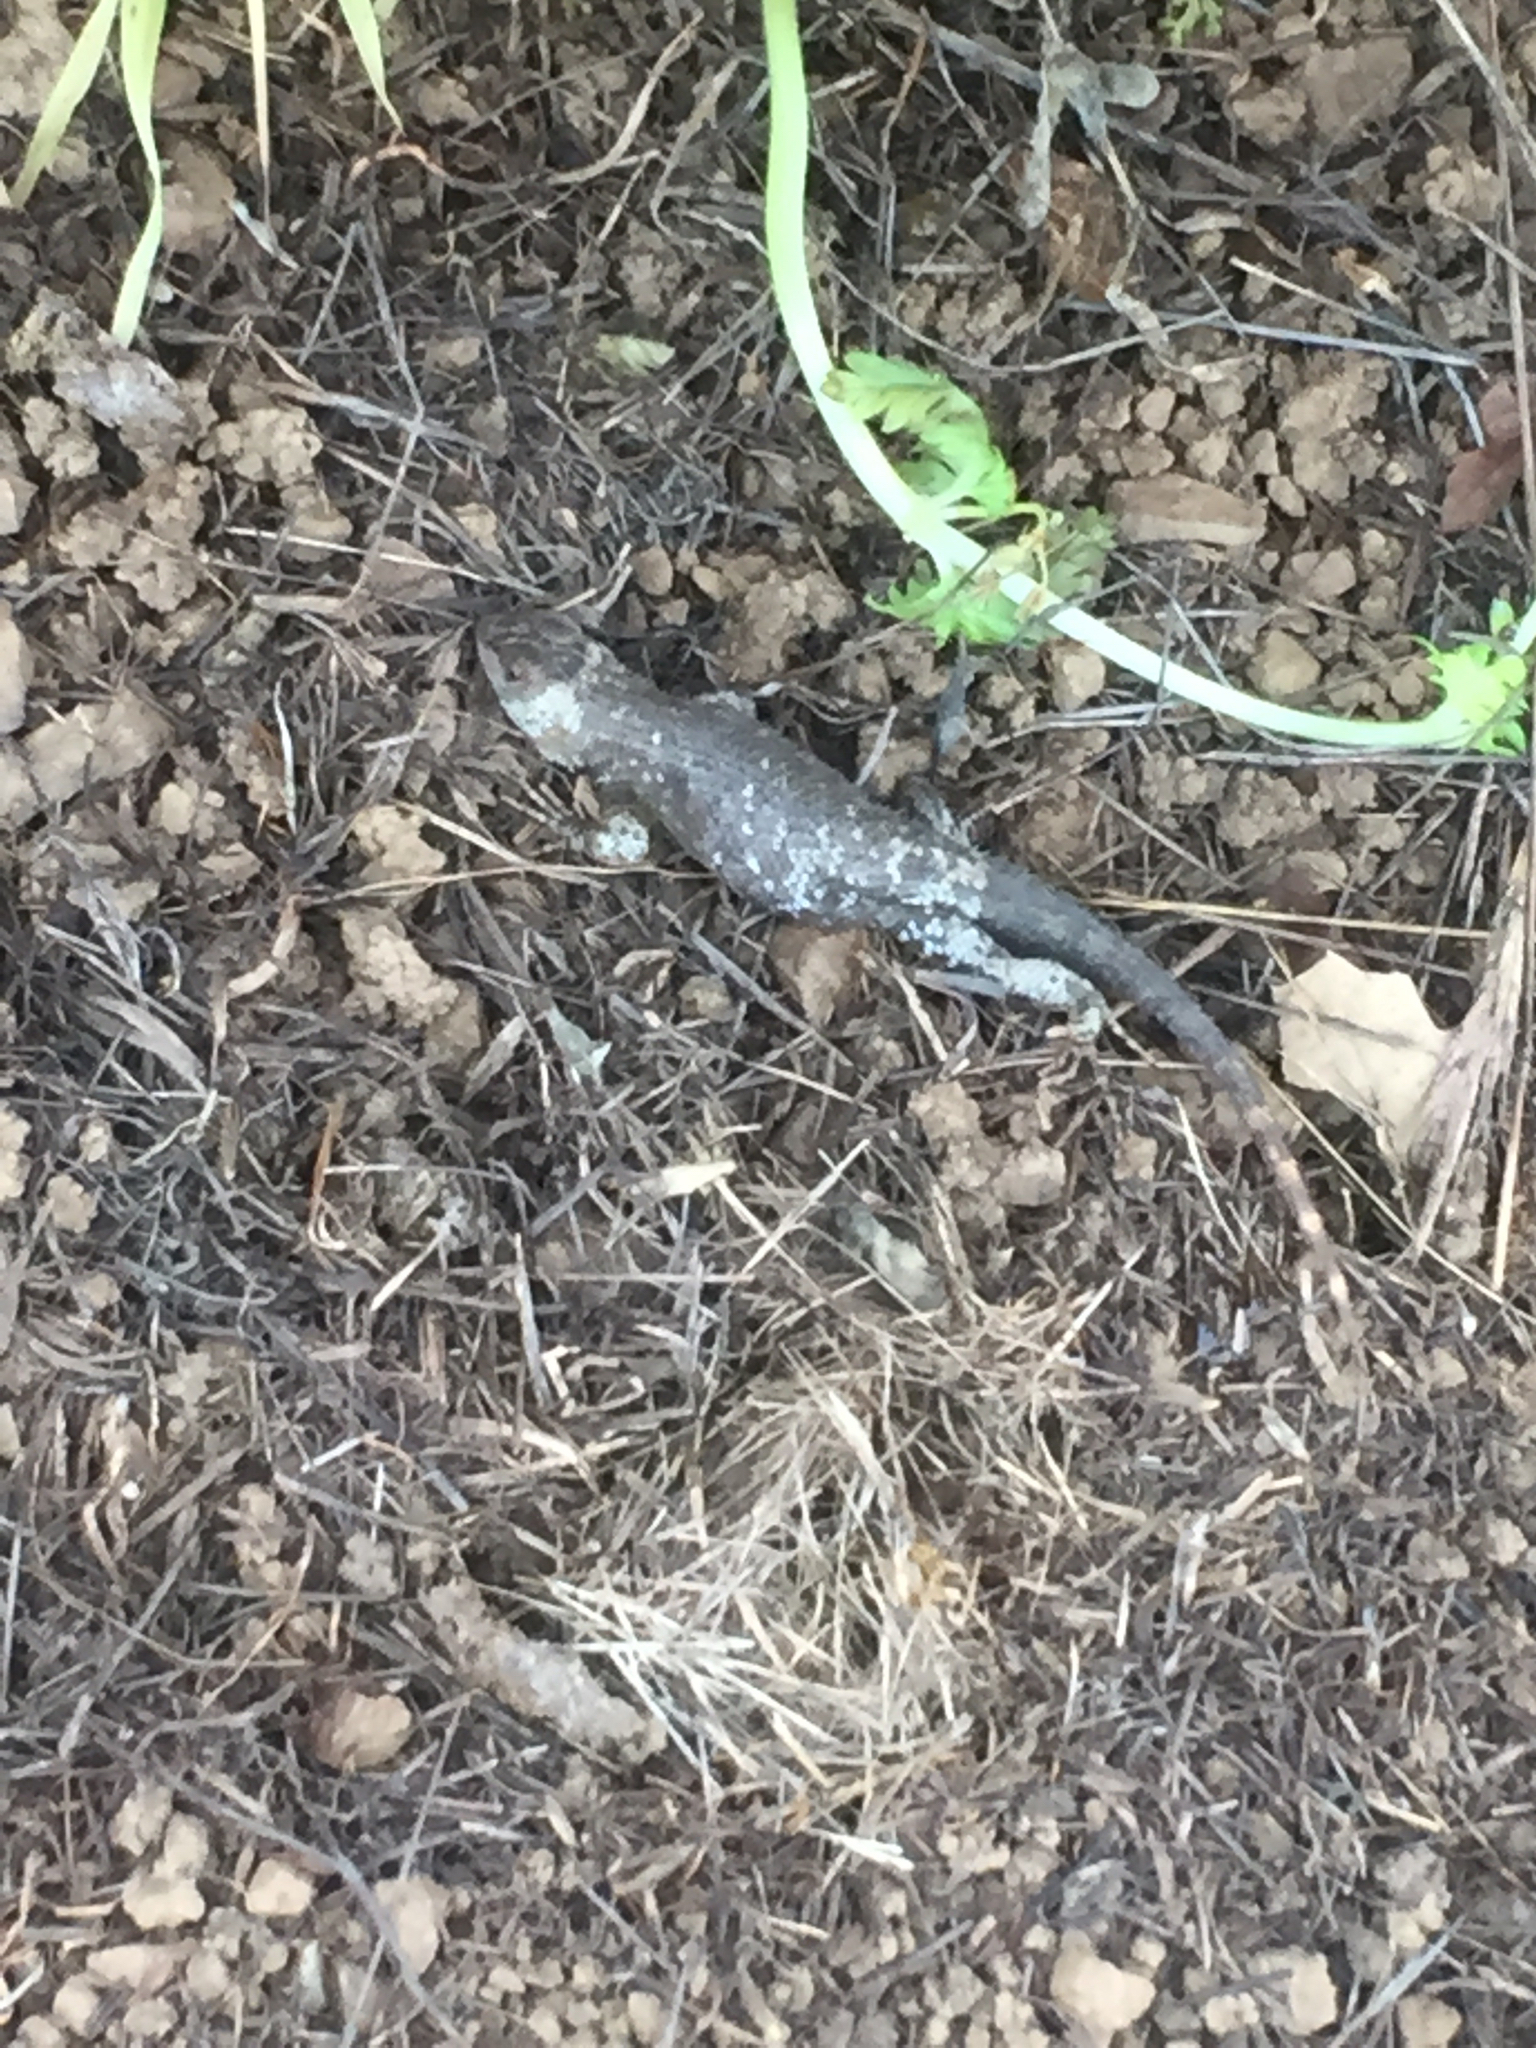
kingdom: Animalia
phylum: Chordata
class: Squamata
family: Phrynosomatidae
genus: Sceloporus
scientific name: Sceloporus occidentalis
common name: Western fence lizard
